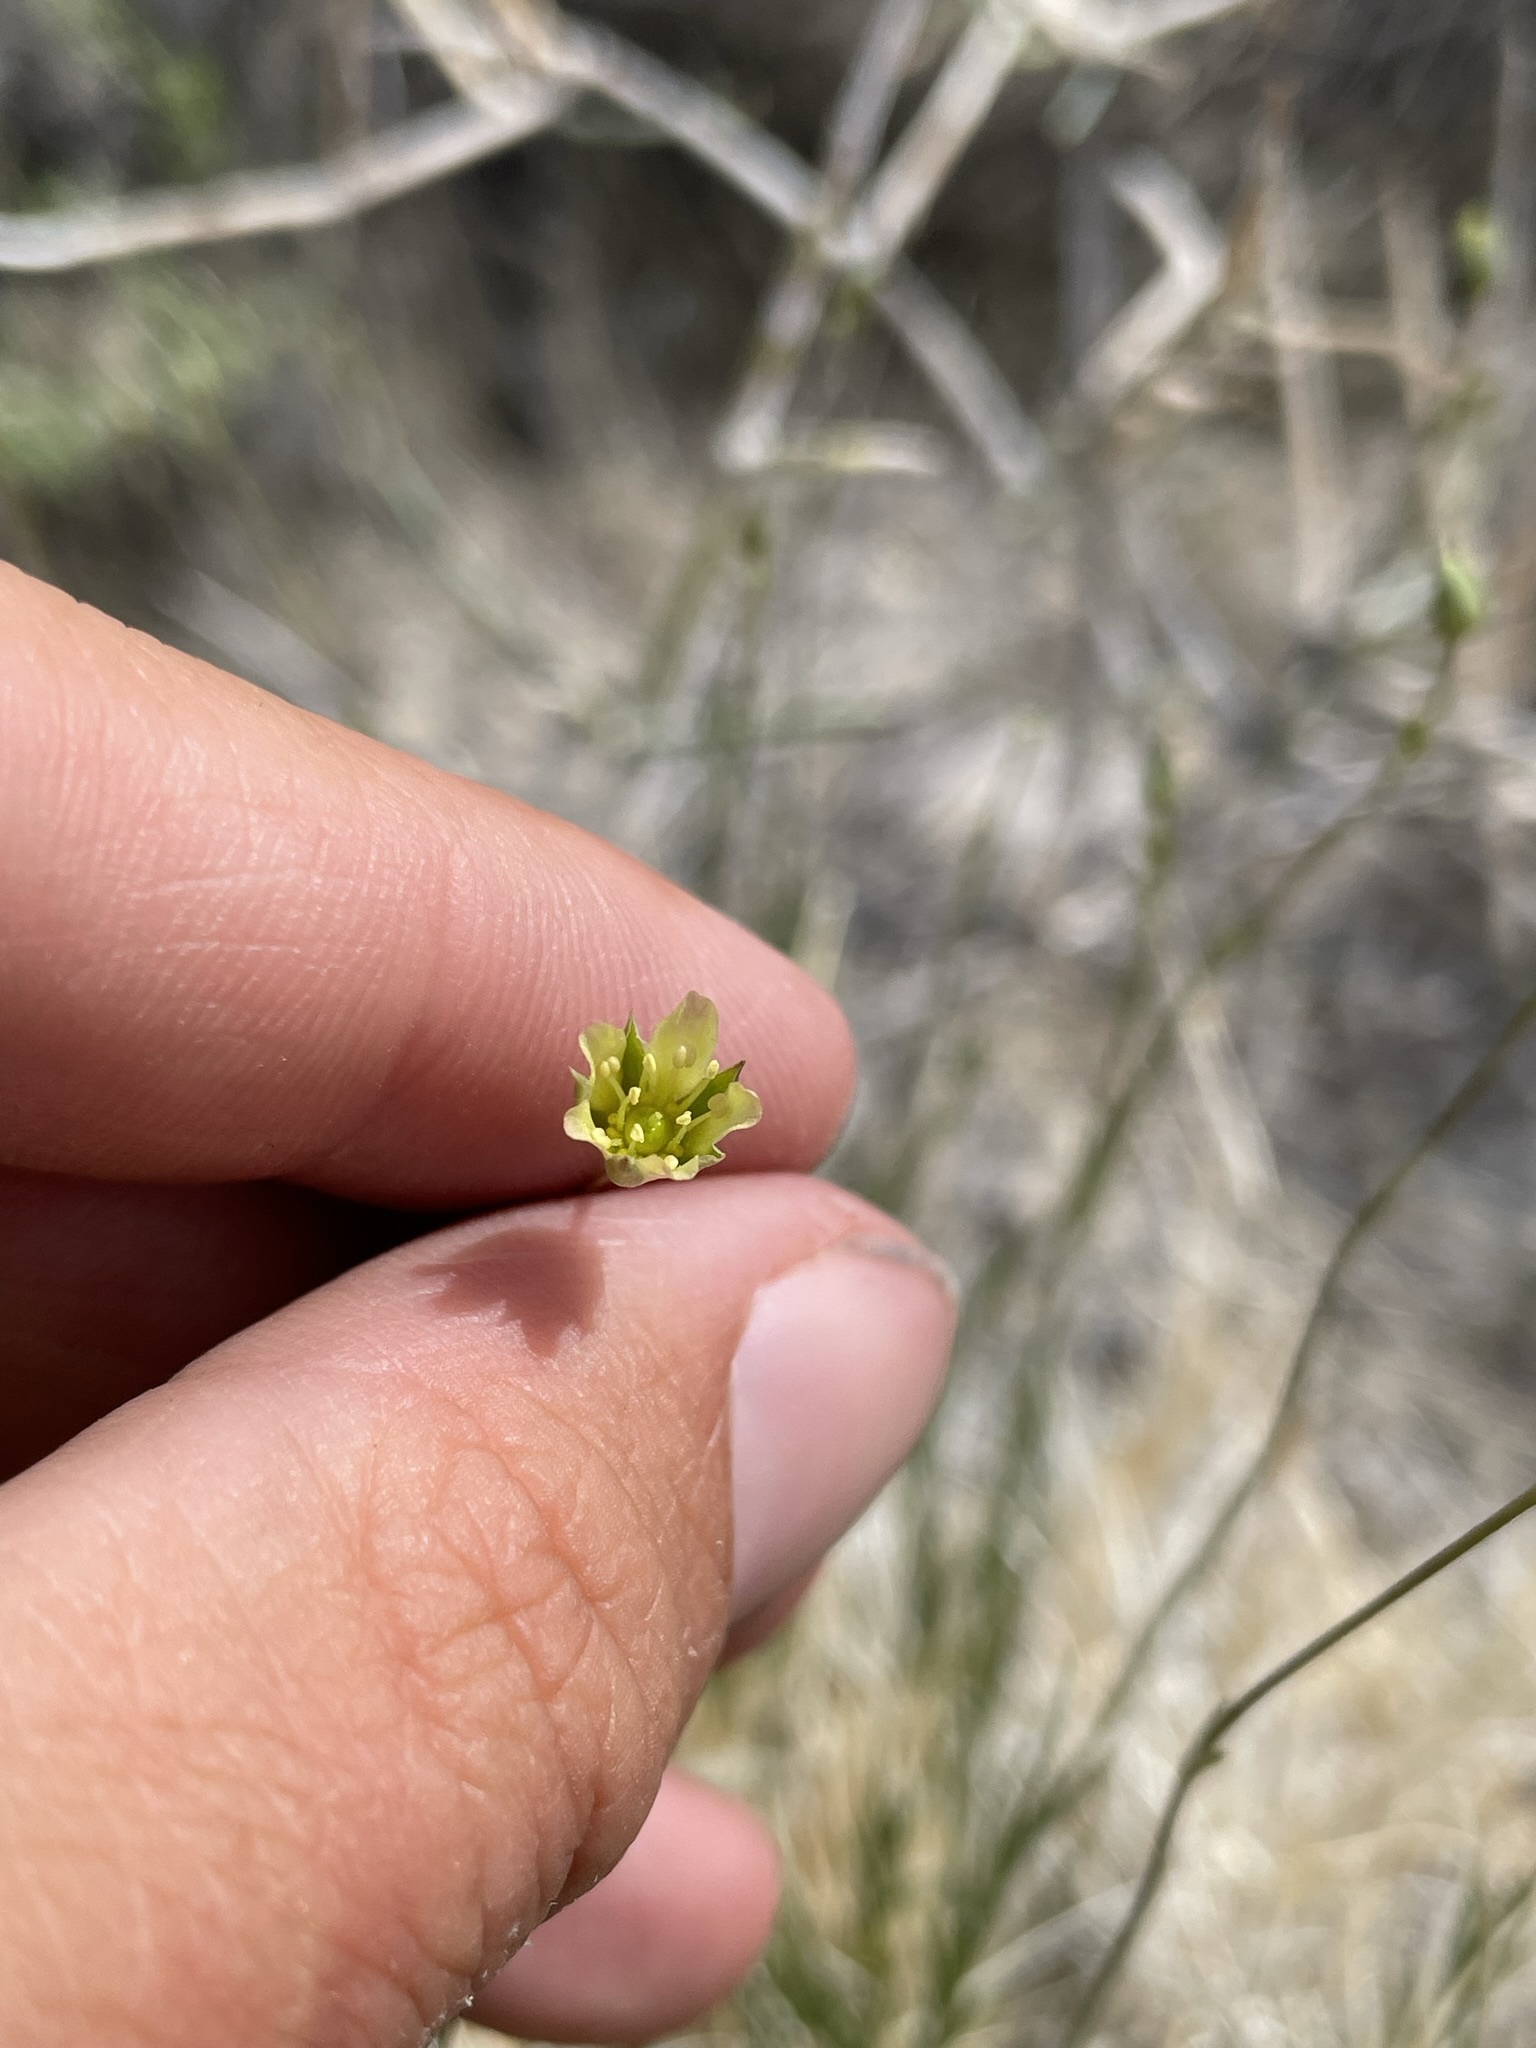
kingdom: Plantae
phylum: Tracheophyta
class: Magnoliopsida
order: Caryophyllales
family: Caryophyllaceae
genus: Eremogone
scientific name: Eremogone macradenia
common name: Mohave sandwort
